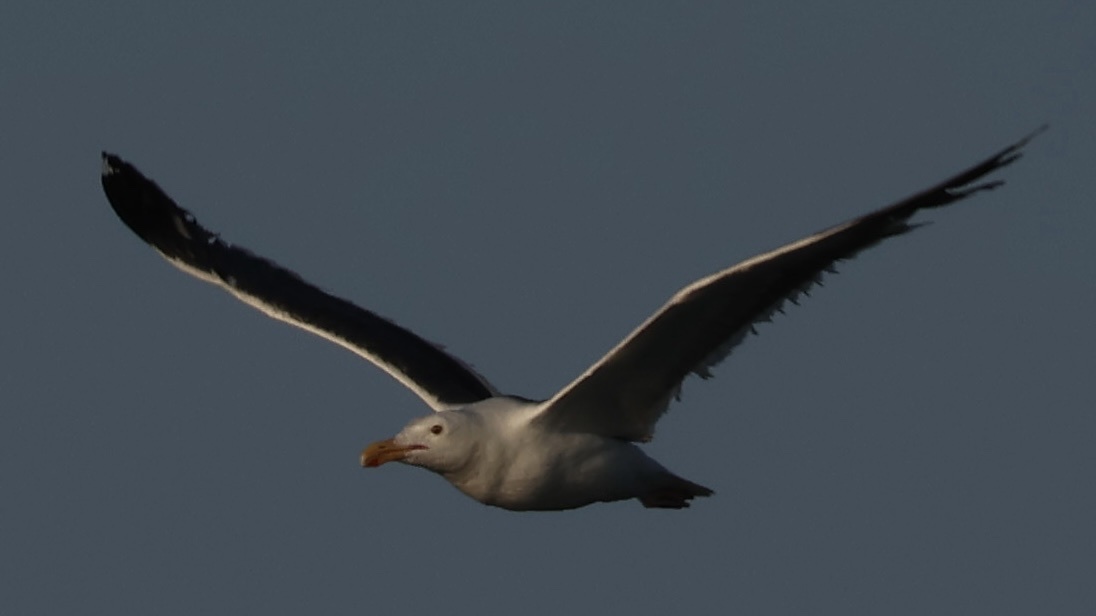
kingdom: Animalia
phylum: Chordata
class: Aves
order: Charadriiformes
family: Laridae
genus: Larus
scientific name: Larus occidentalis
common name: Western gull
